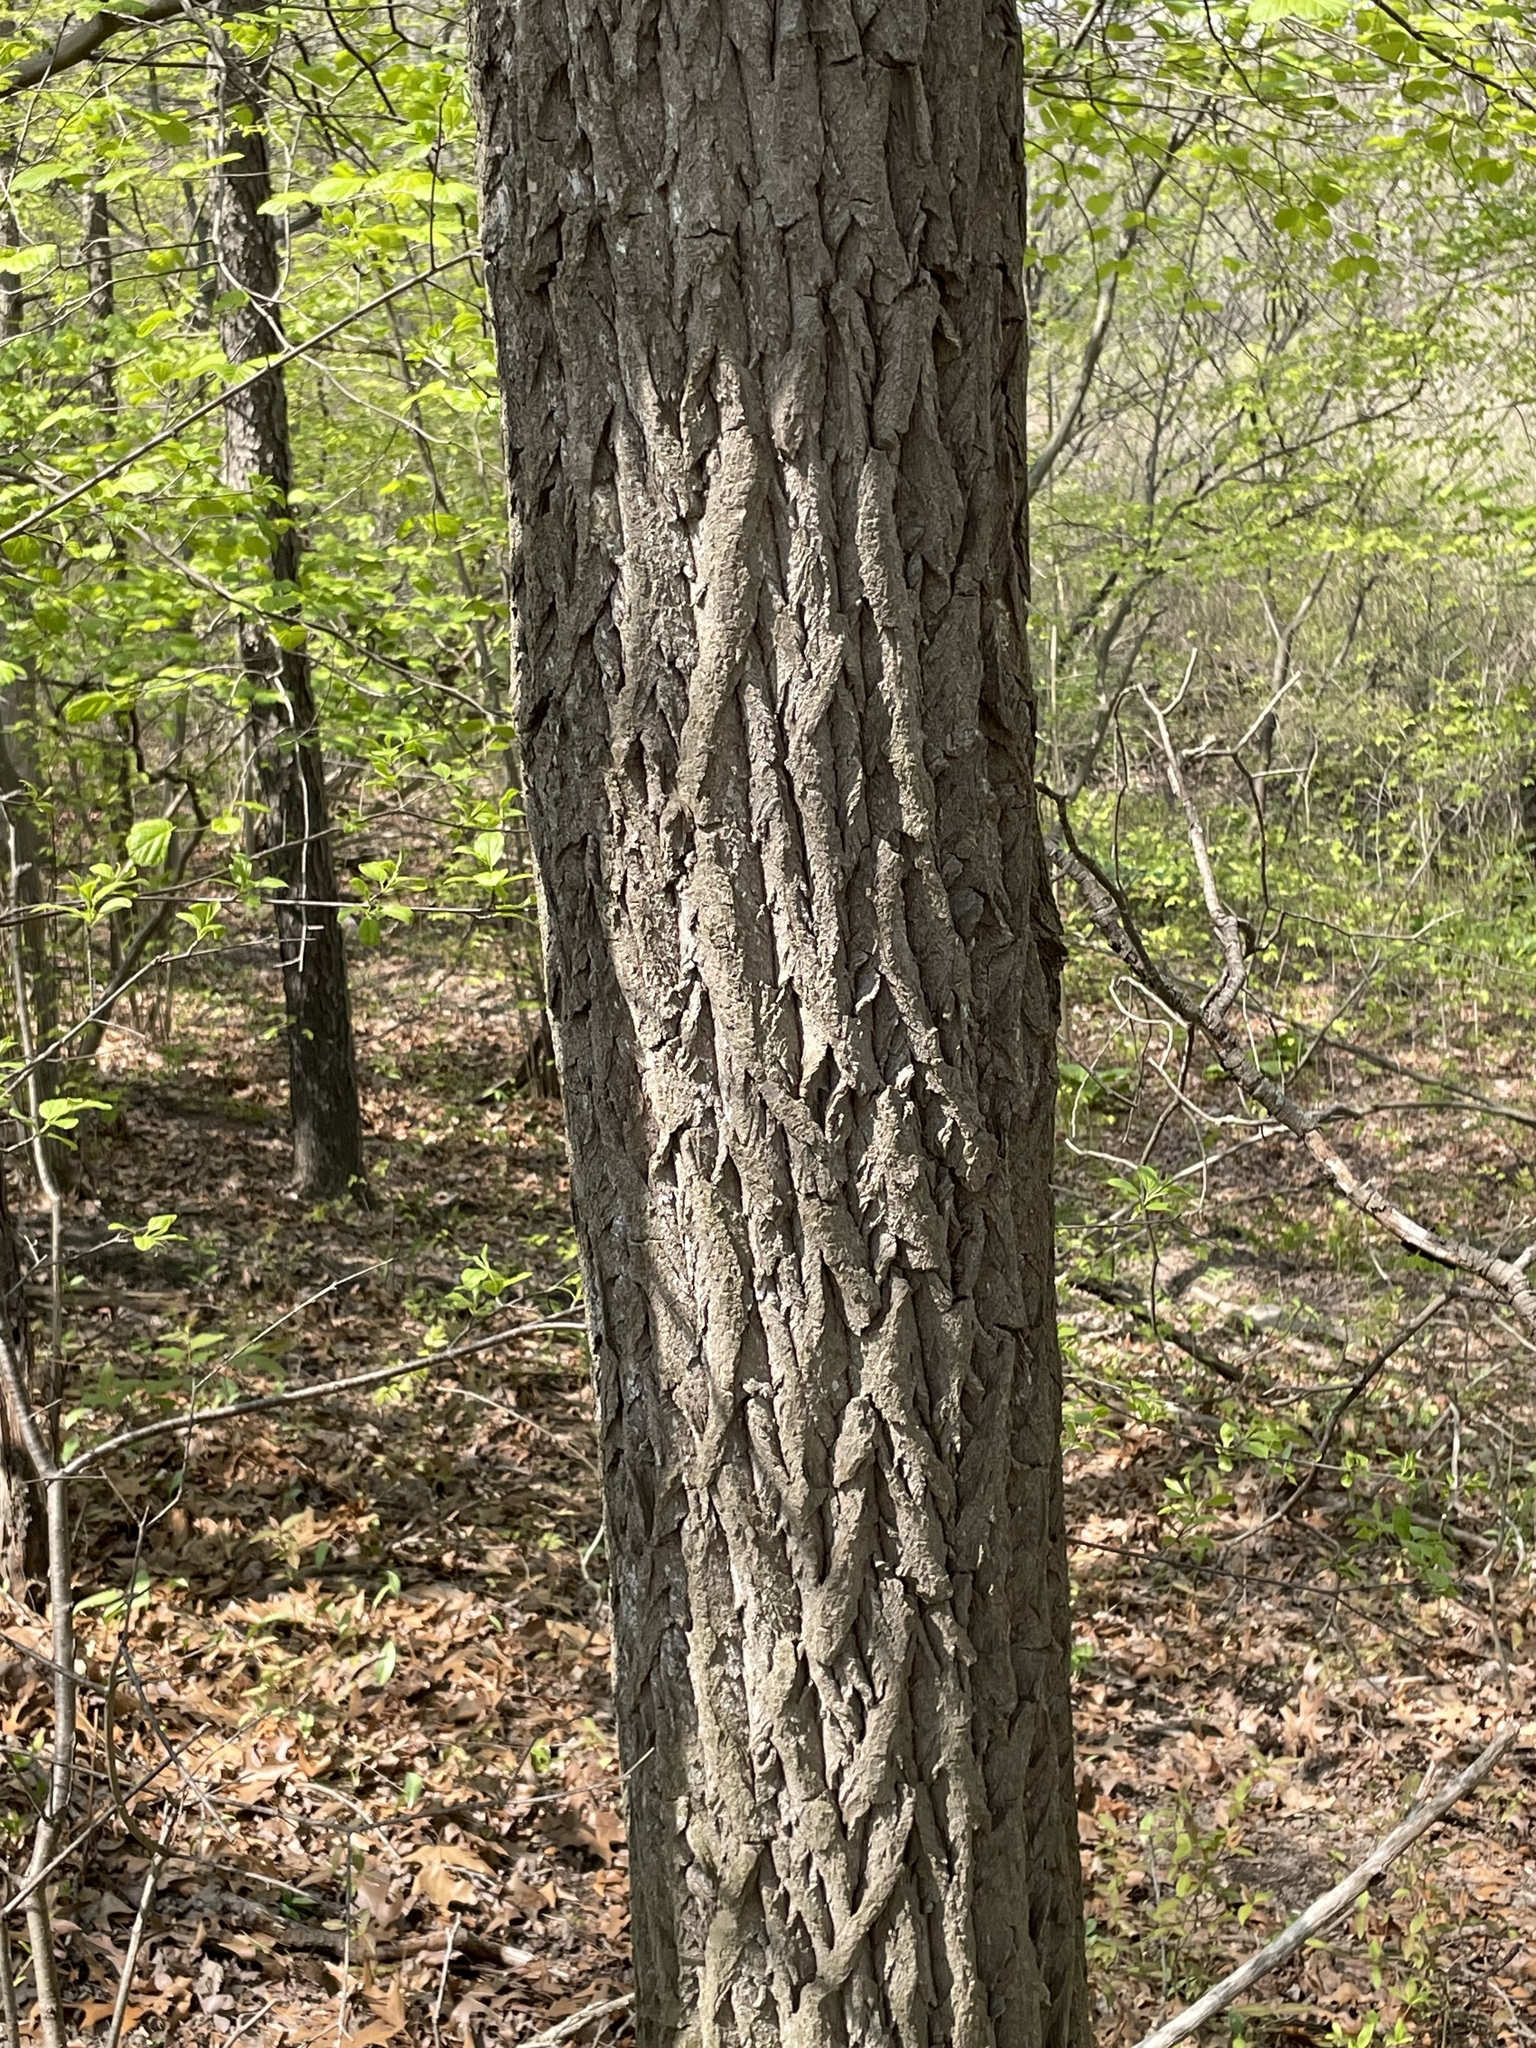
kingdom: Plantae
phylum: Tracheophyta
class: Magnoliopsida
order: Laurales
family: Lauraceae
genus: Sassafras
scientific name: Sassafras albidum
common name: Sassafras
